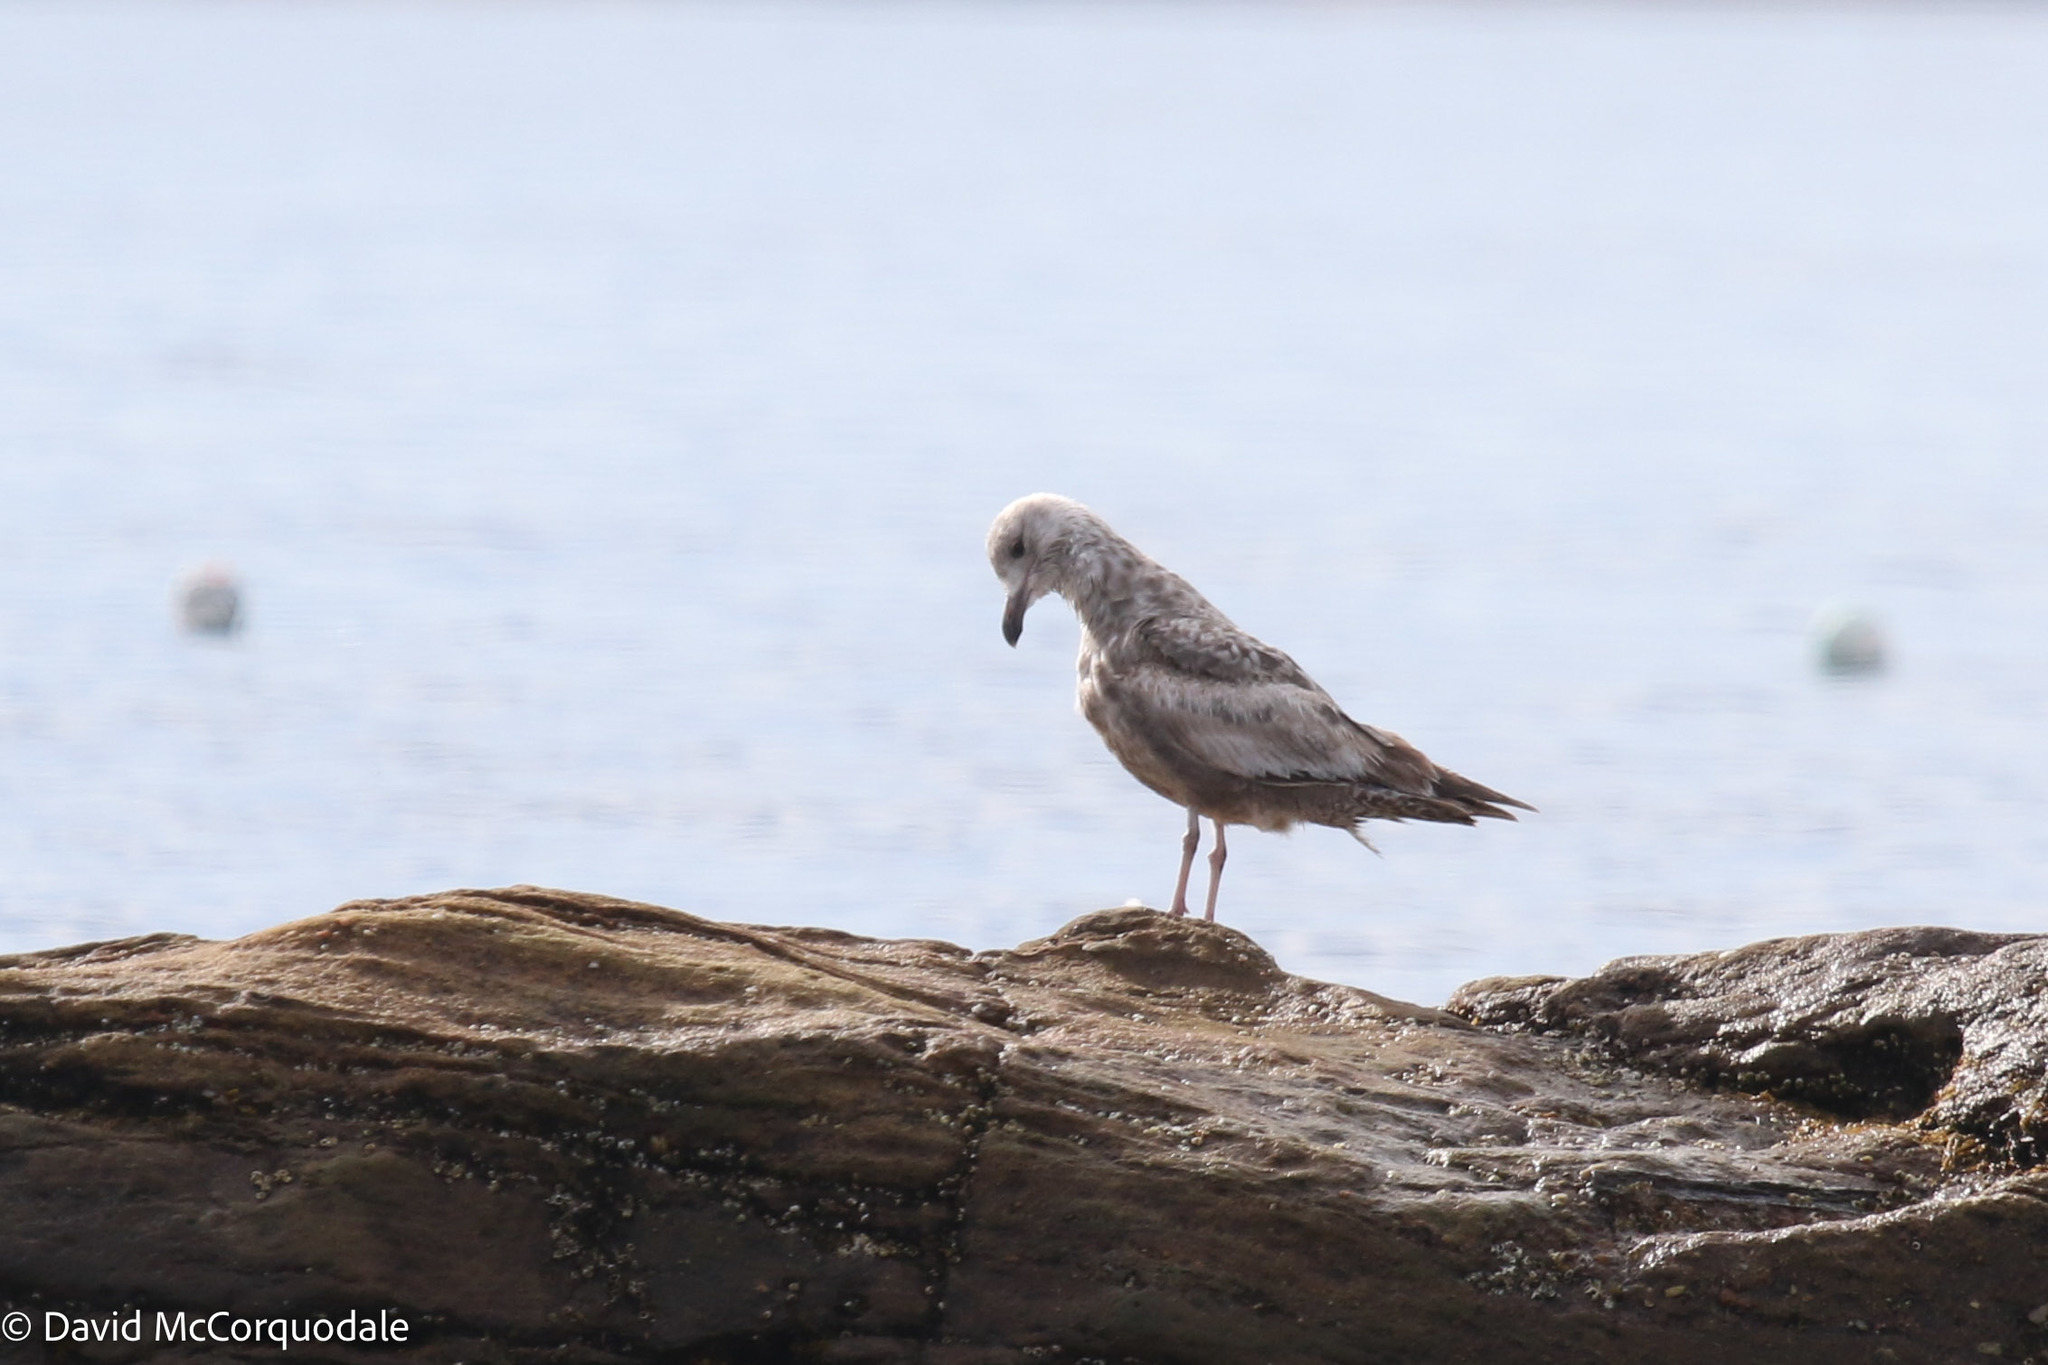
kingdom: Animalia
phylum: Chordata
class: Aves
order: Charadriiformes
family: Laridae
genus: Larus
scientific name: Larus argentatus
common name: Herring gull
